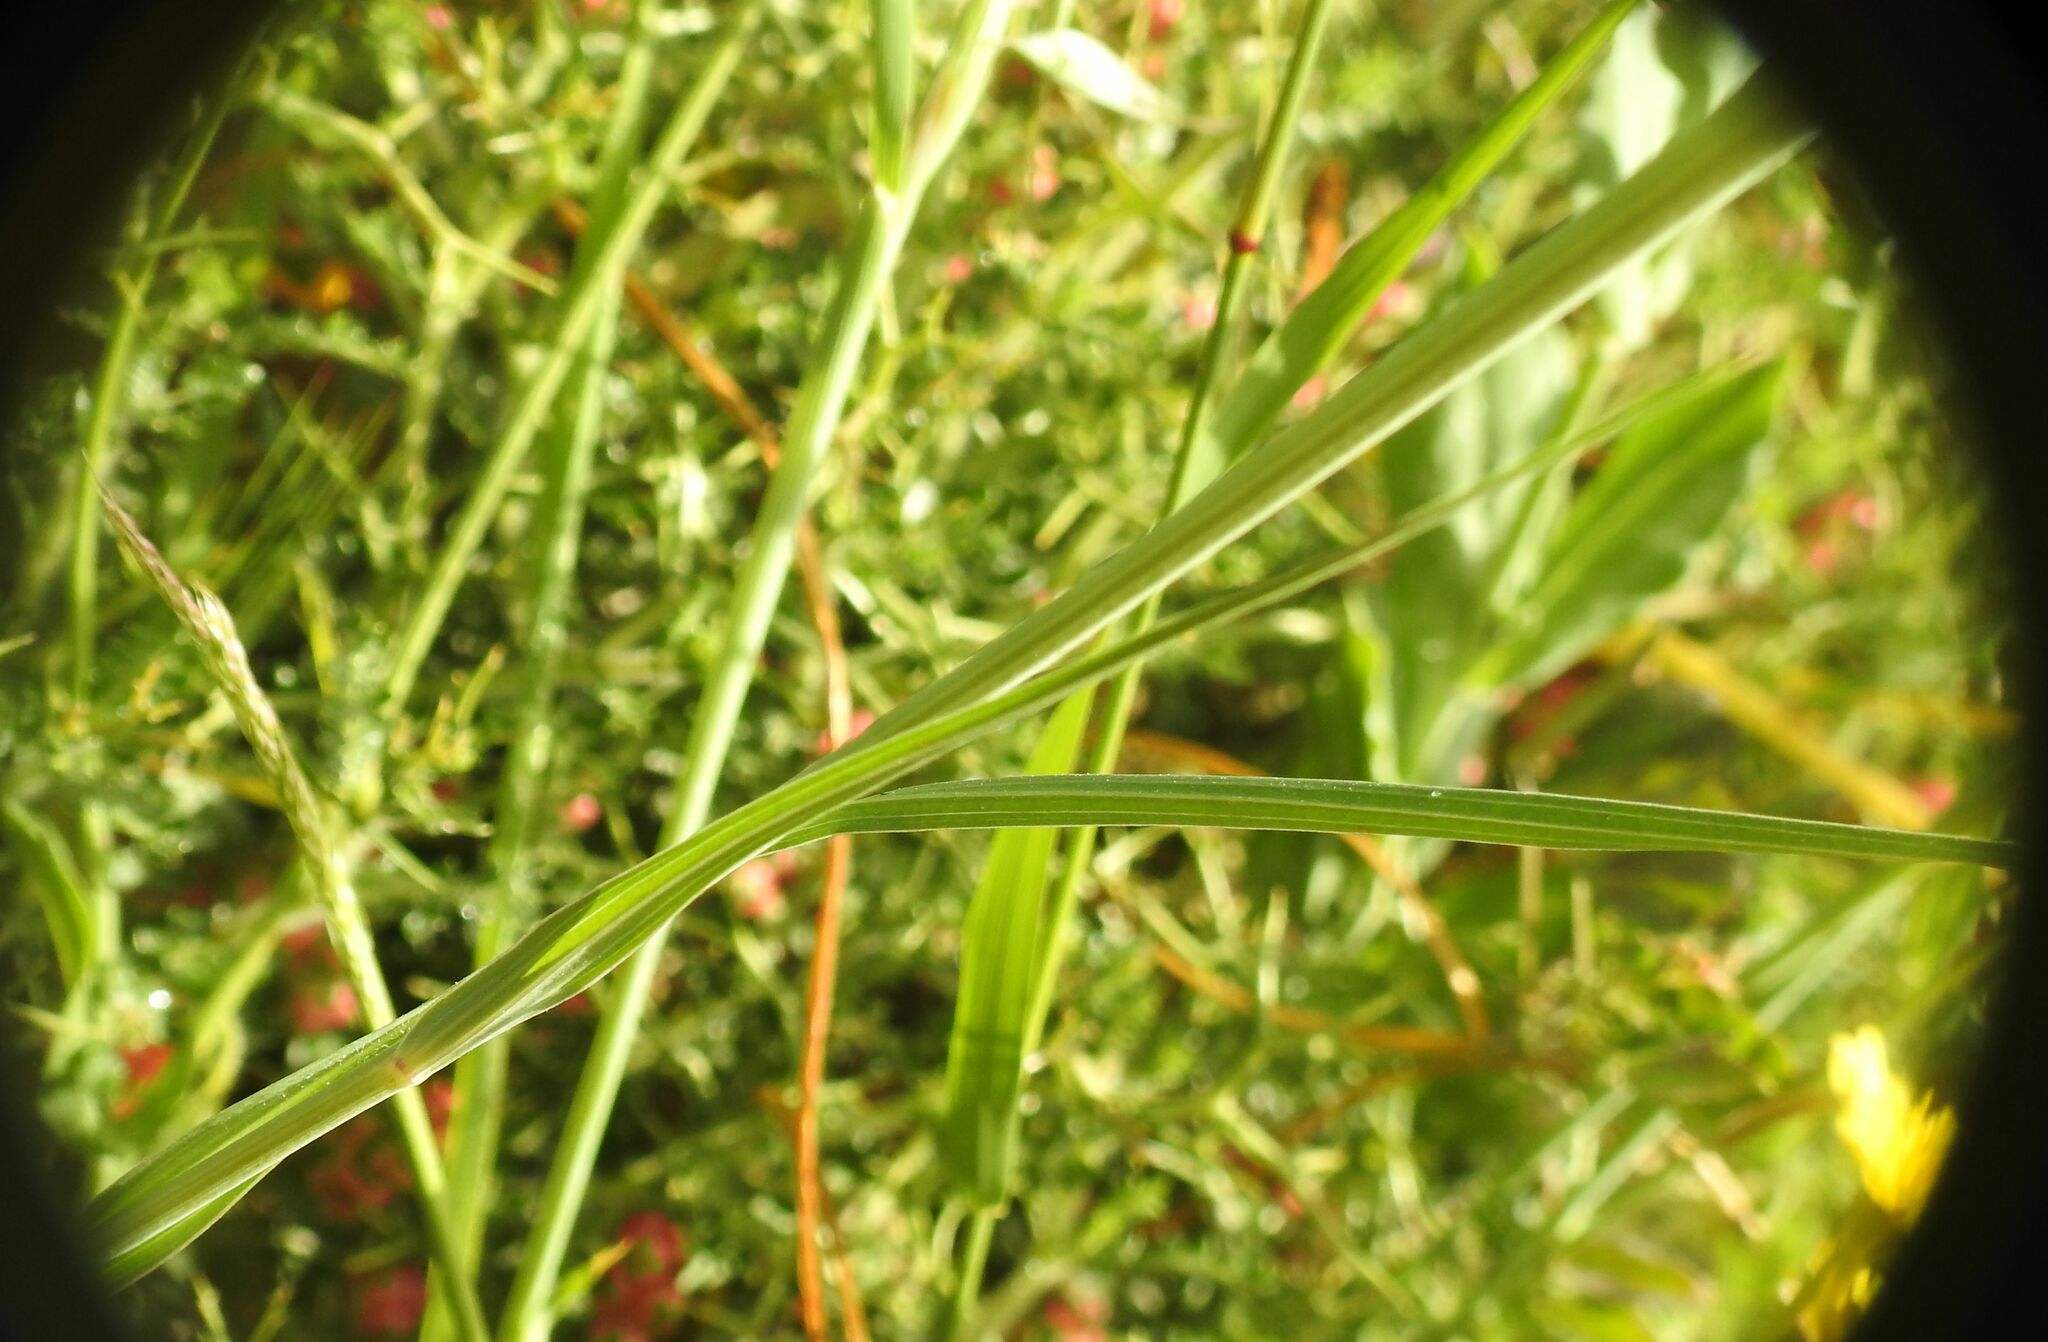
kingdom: Plantae
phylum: Tracheophyta
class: Magnoliopsida
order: Asterales
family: Asteraceae
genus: Geropogon
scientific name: Geropogon hybridus
